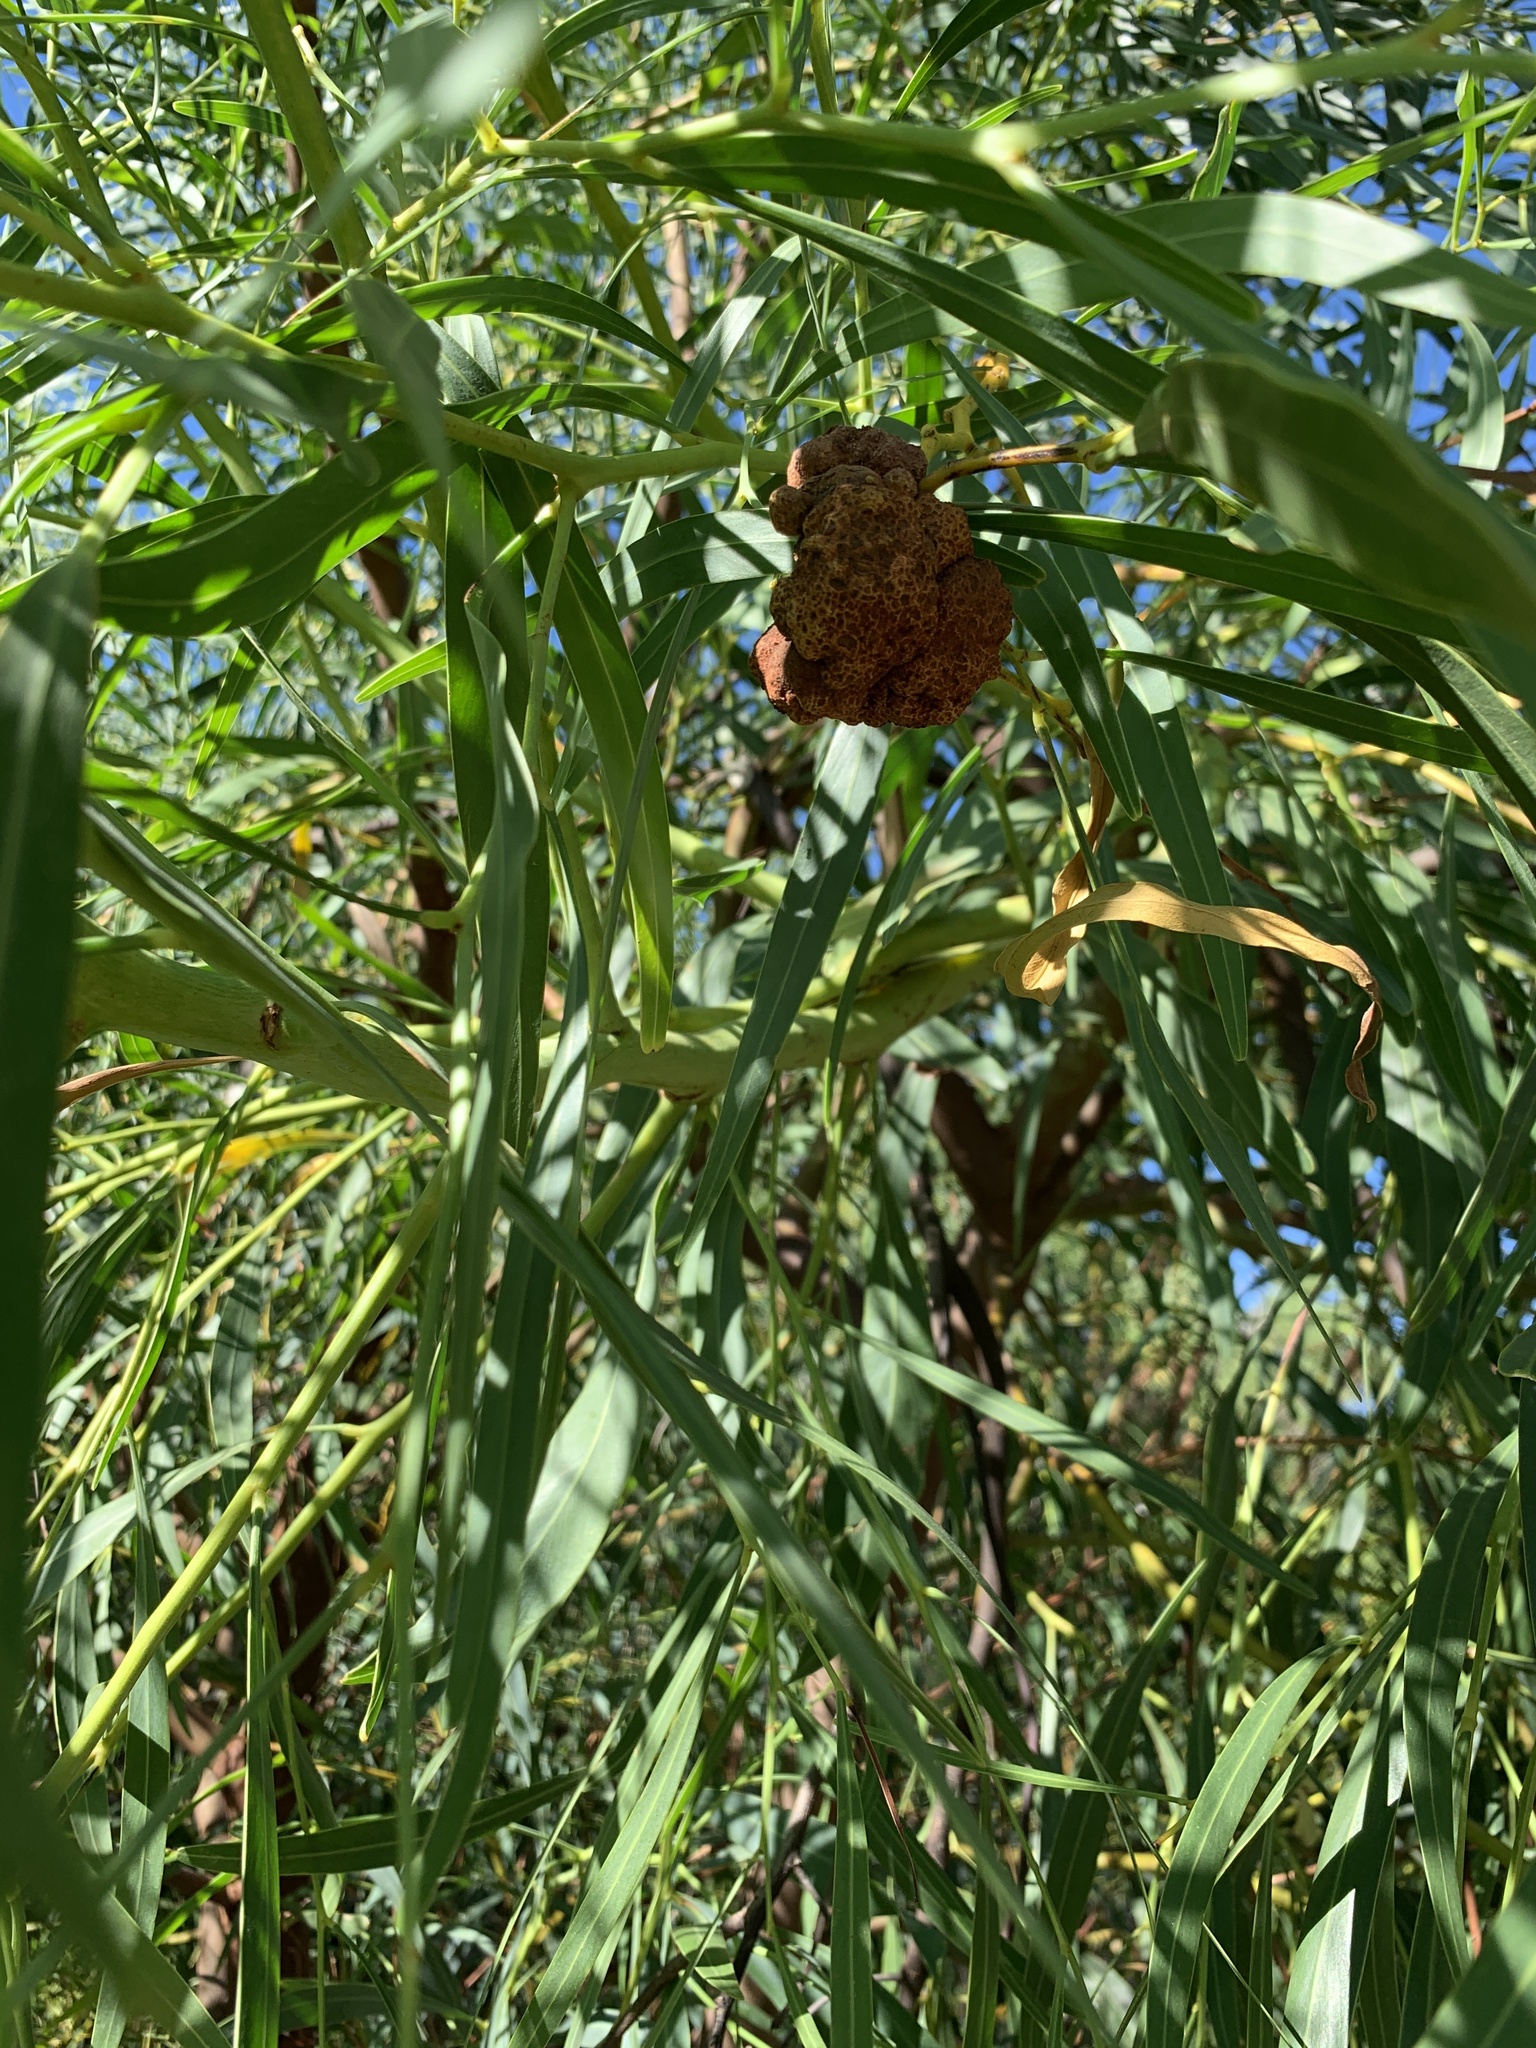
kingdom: Plantae
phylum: Tracheophyta
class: Magnoliopsida
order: Fabales
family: Fabaceae
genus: Acacia
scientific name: Acacia saligna
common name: Orange wattle
